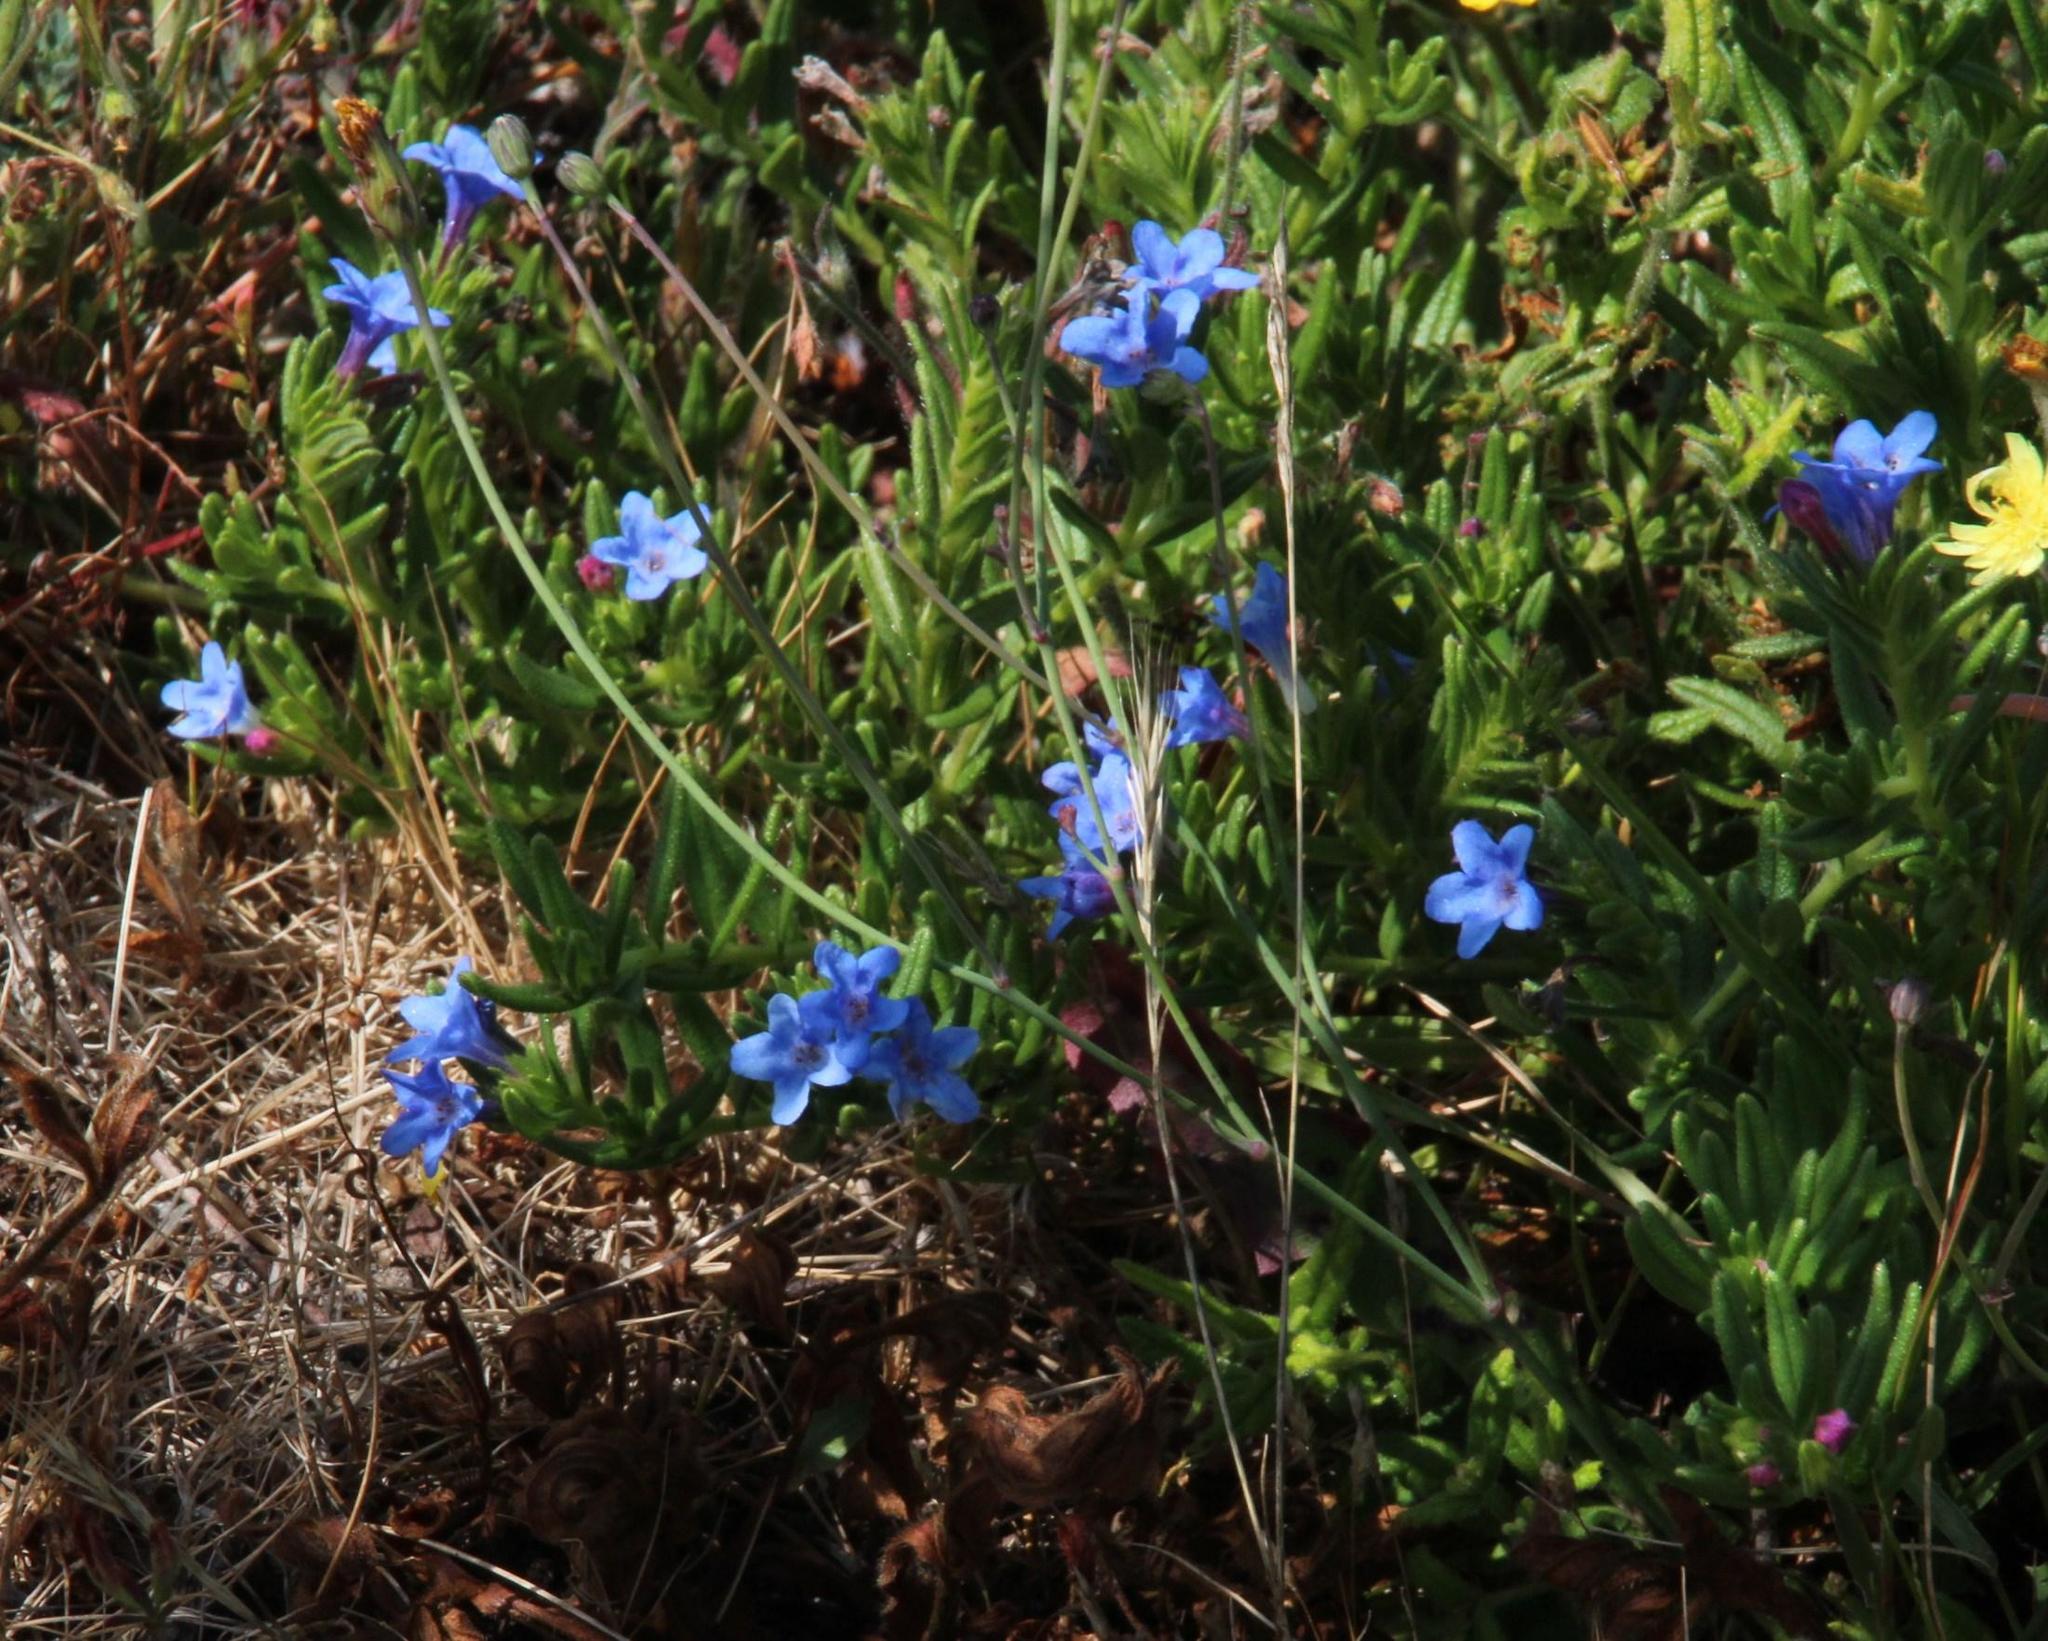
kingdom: Plantae
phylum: Tracheophyta
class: Magnoliopsida
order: Boraginales
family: Boraginaceae
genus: Glandora
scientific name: Glandora prostrata
